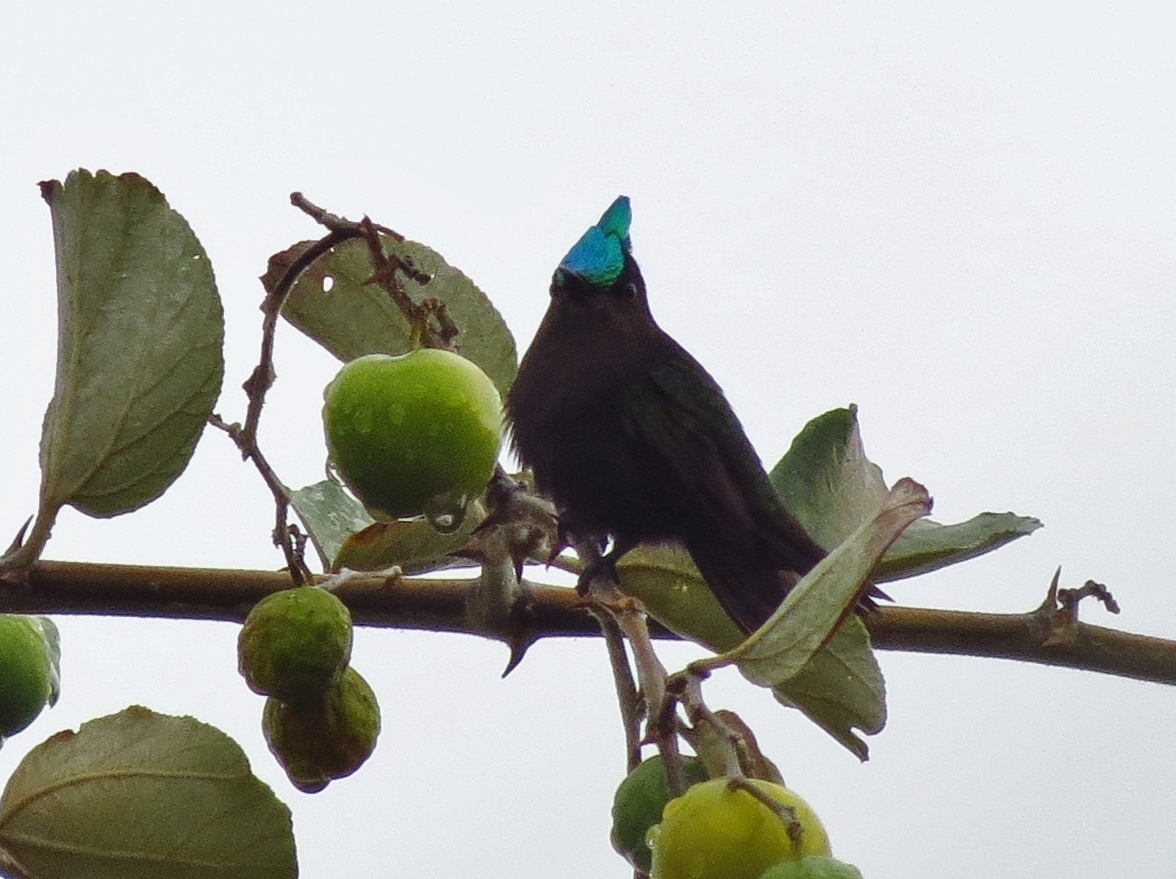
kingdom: Animalia
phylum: Chordata
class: Aves
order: Apodiformes
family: Trochilidae
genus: Orthorhyncus
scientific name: Orthorhyncus cristatus
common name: Antillean crested hummingbird
